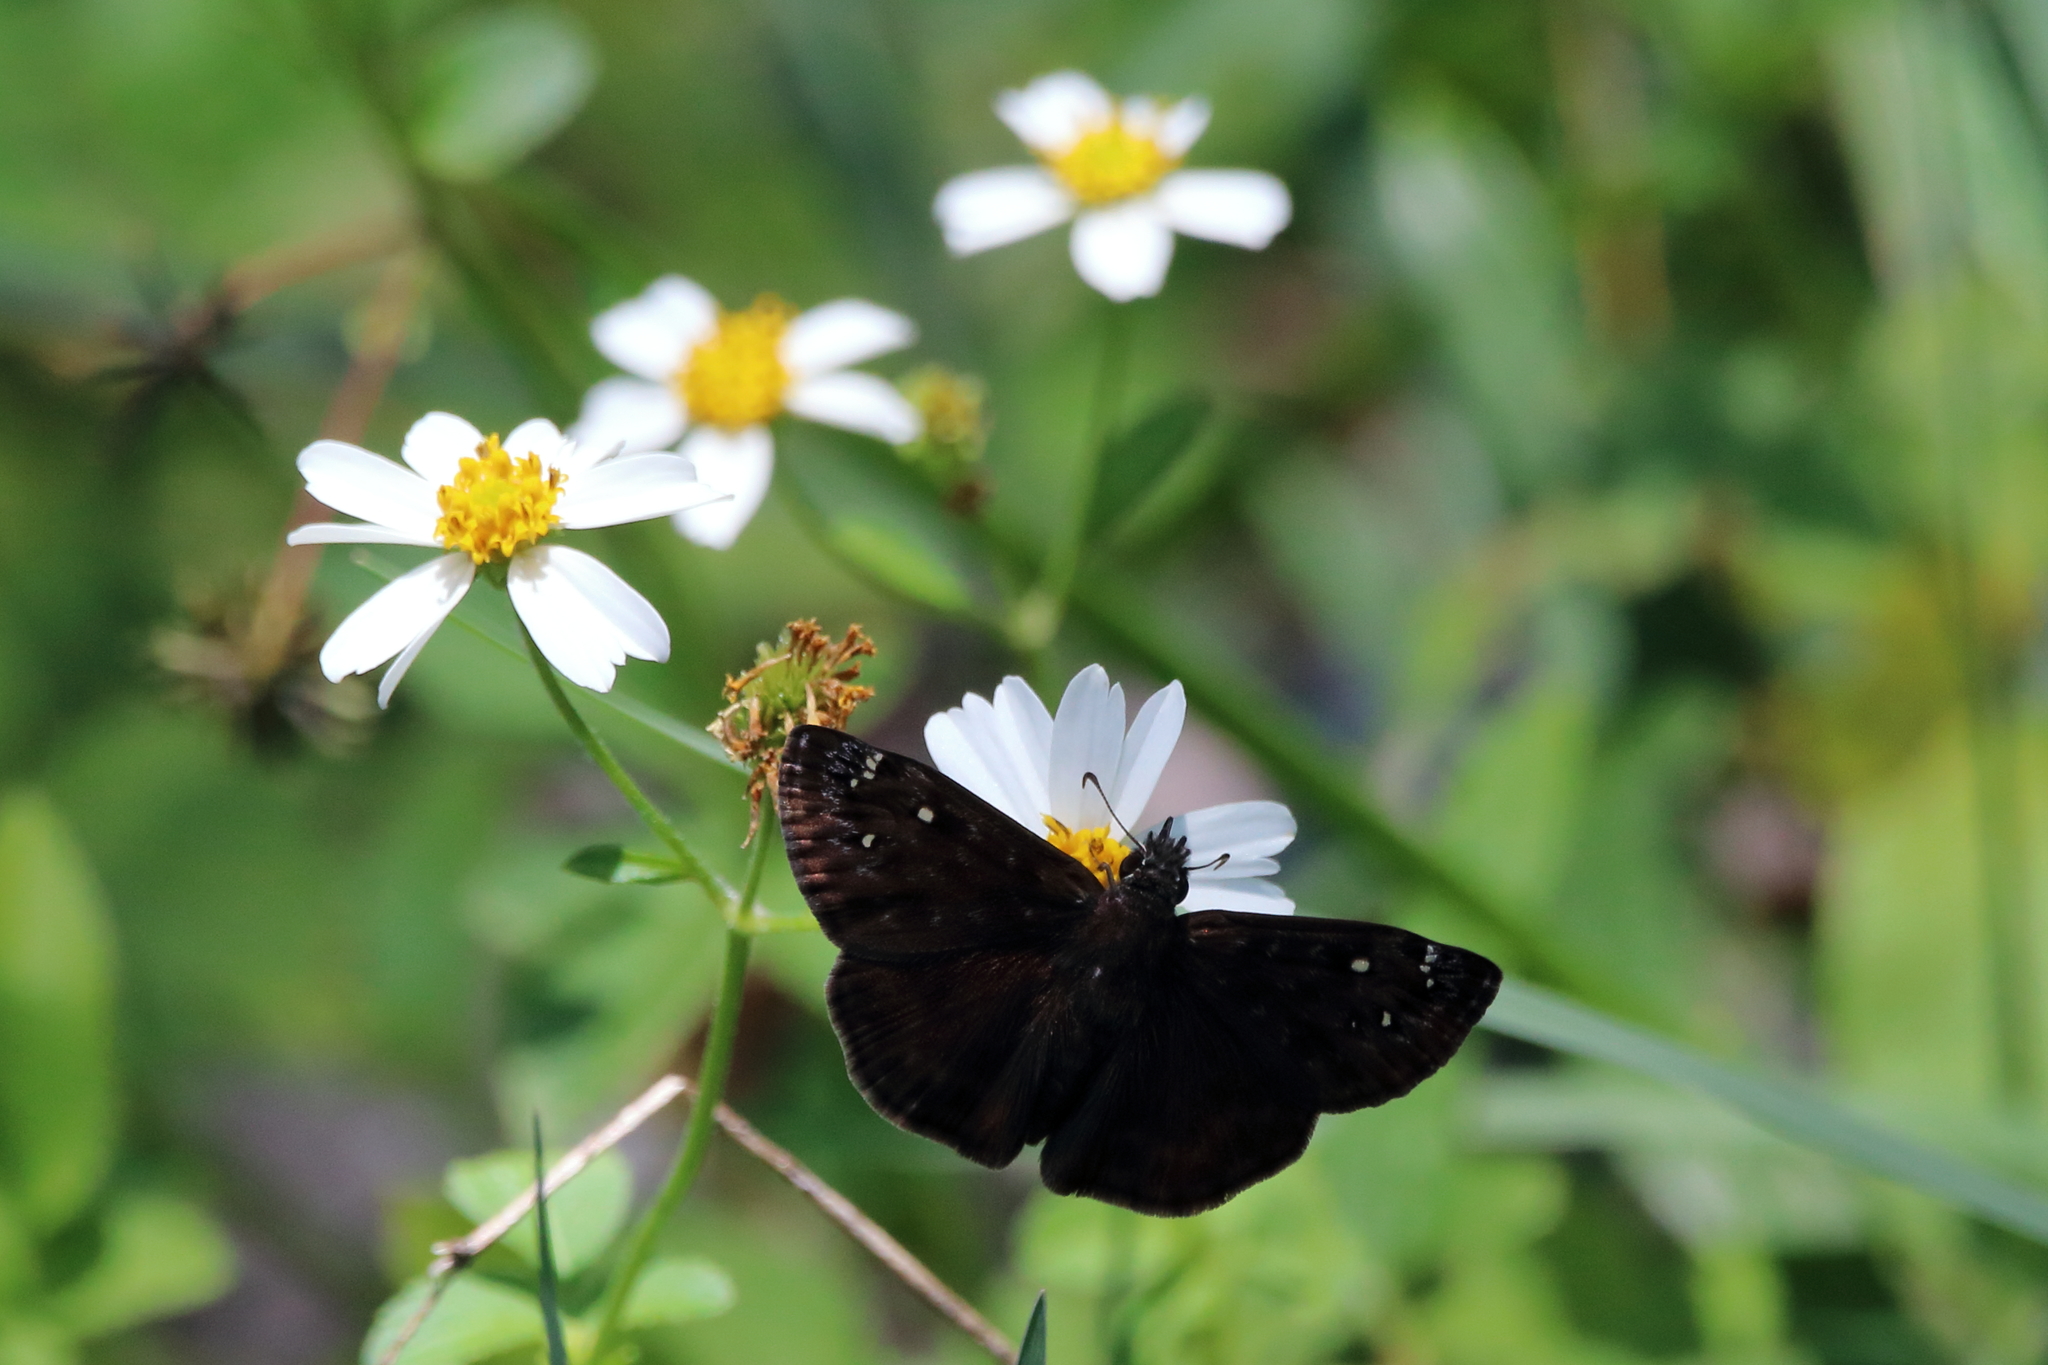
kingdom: Animalia
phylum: Arthropoda
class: Insecta
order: Lepidoptera
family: Hesperiidae
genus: Erynnis
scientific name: Erynnis horatius
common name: Horace's duskywing
